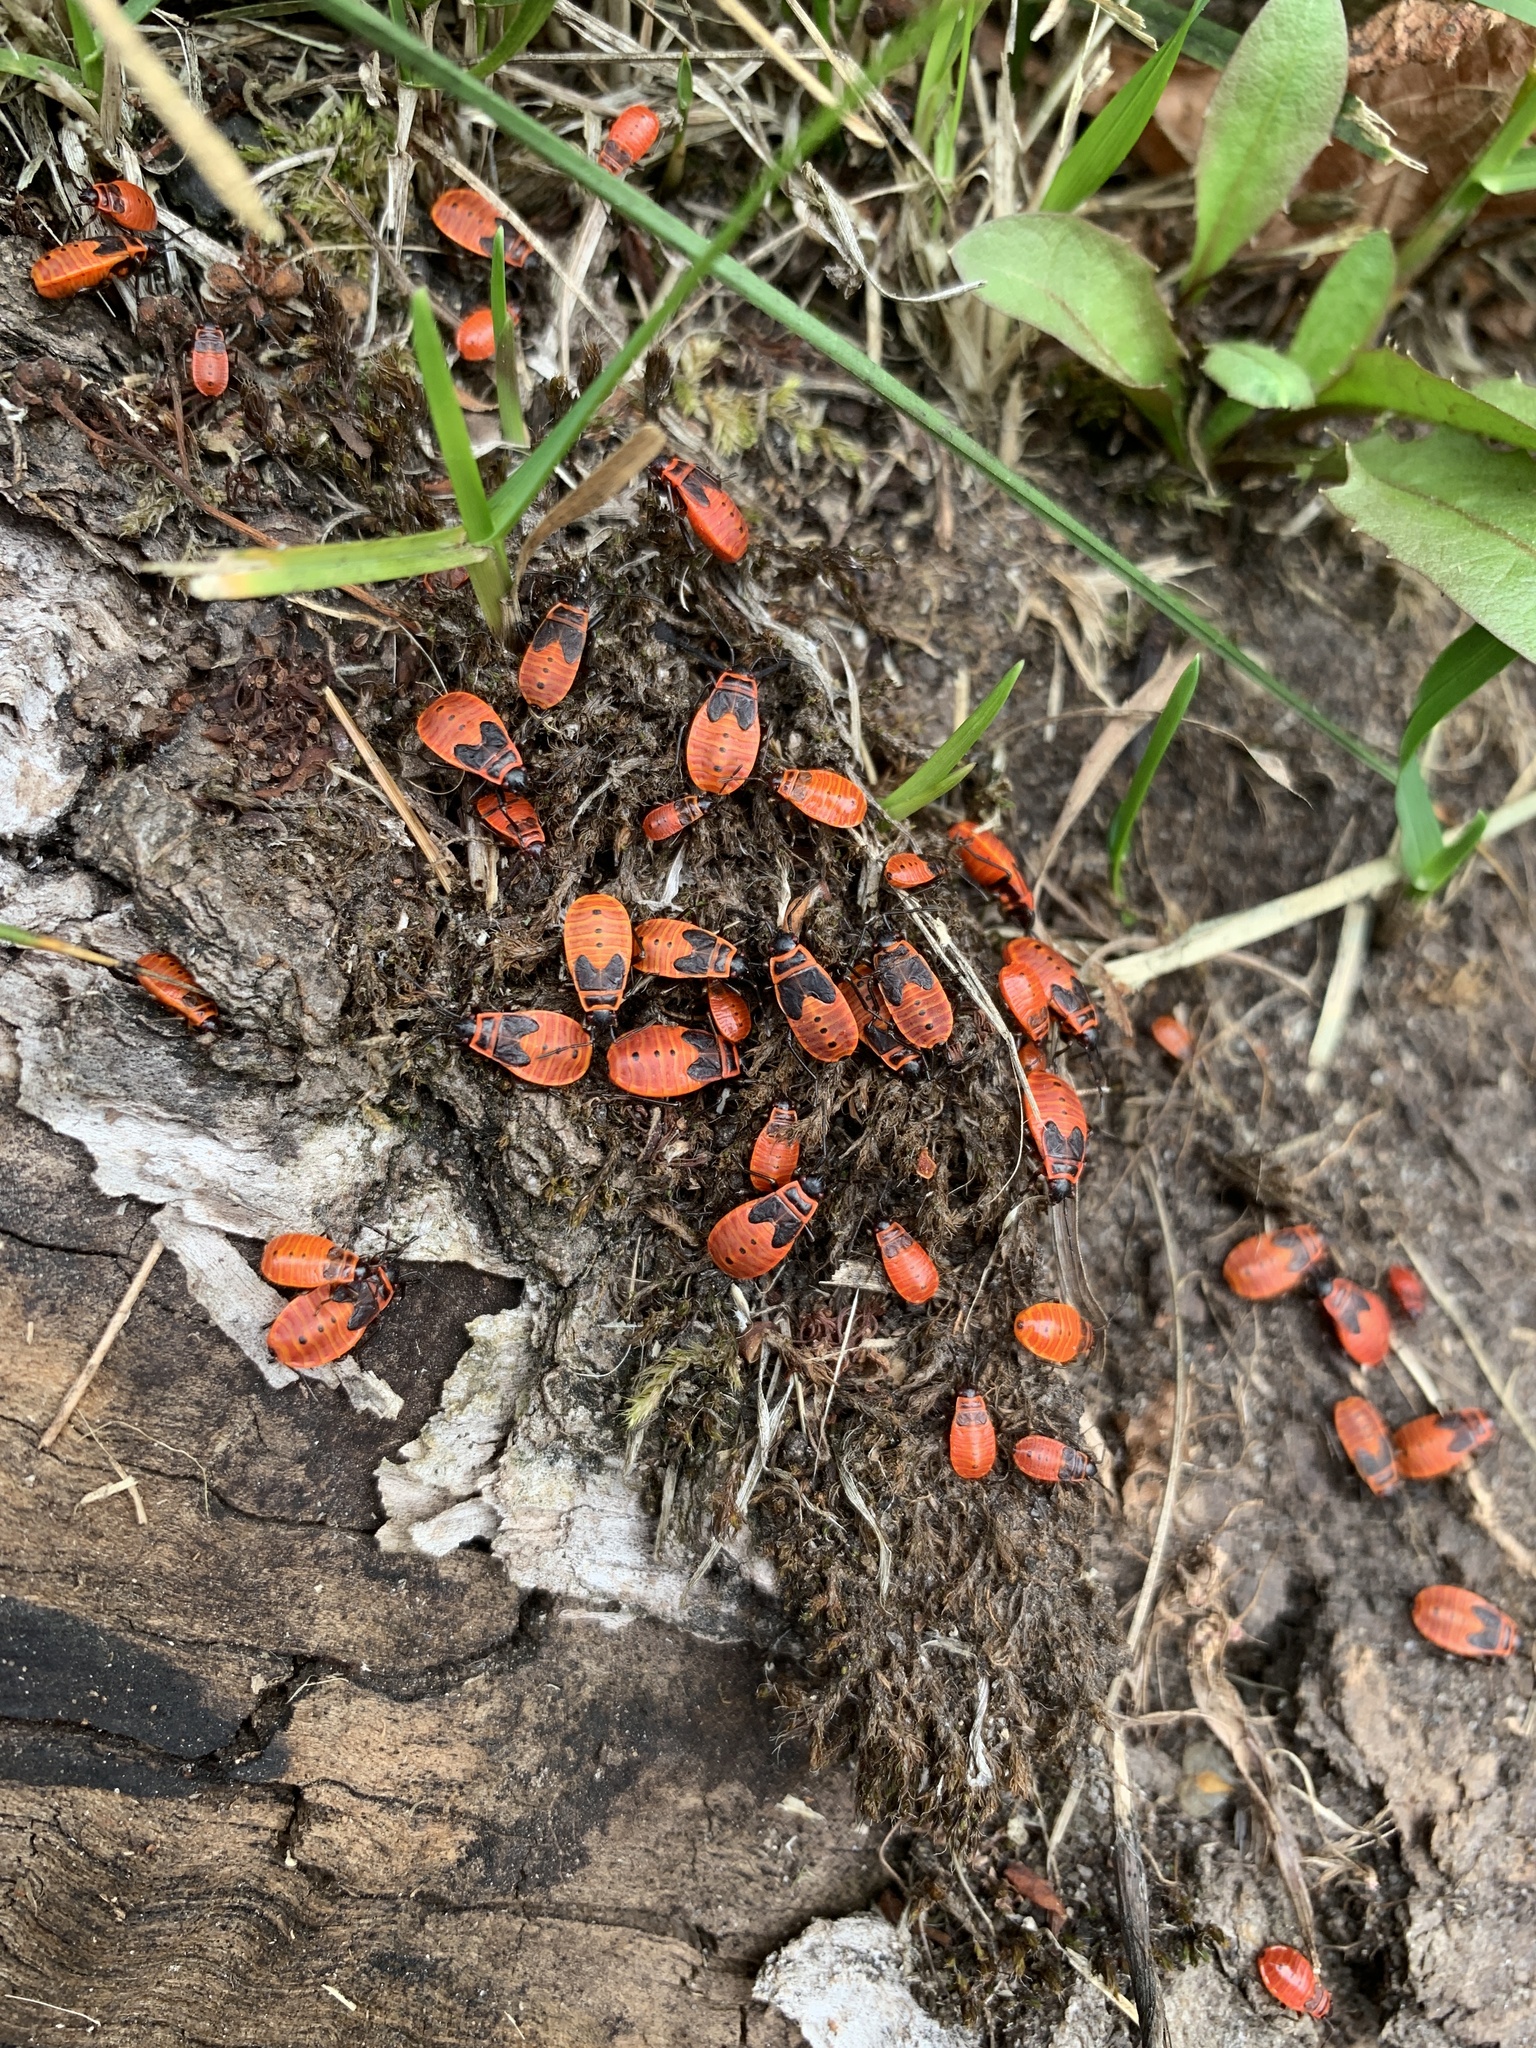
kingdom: Animalia
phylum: Arthropoda
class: Insecta
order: Hemiptera
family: Pyrrhocoridae
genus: Pyrrhocoris
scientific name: Pyrrhocoris apterus
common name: Firebug
